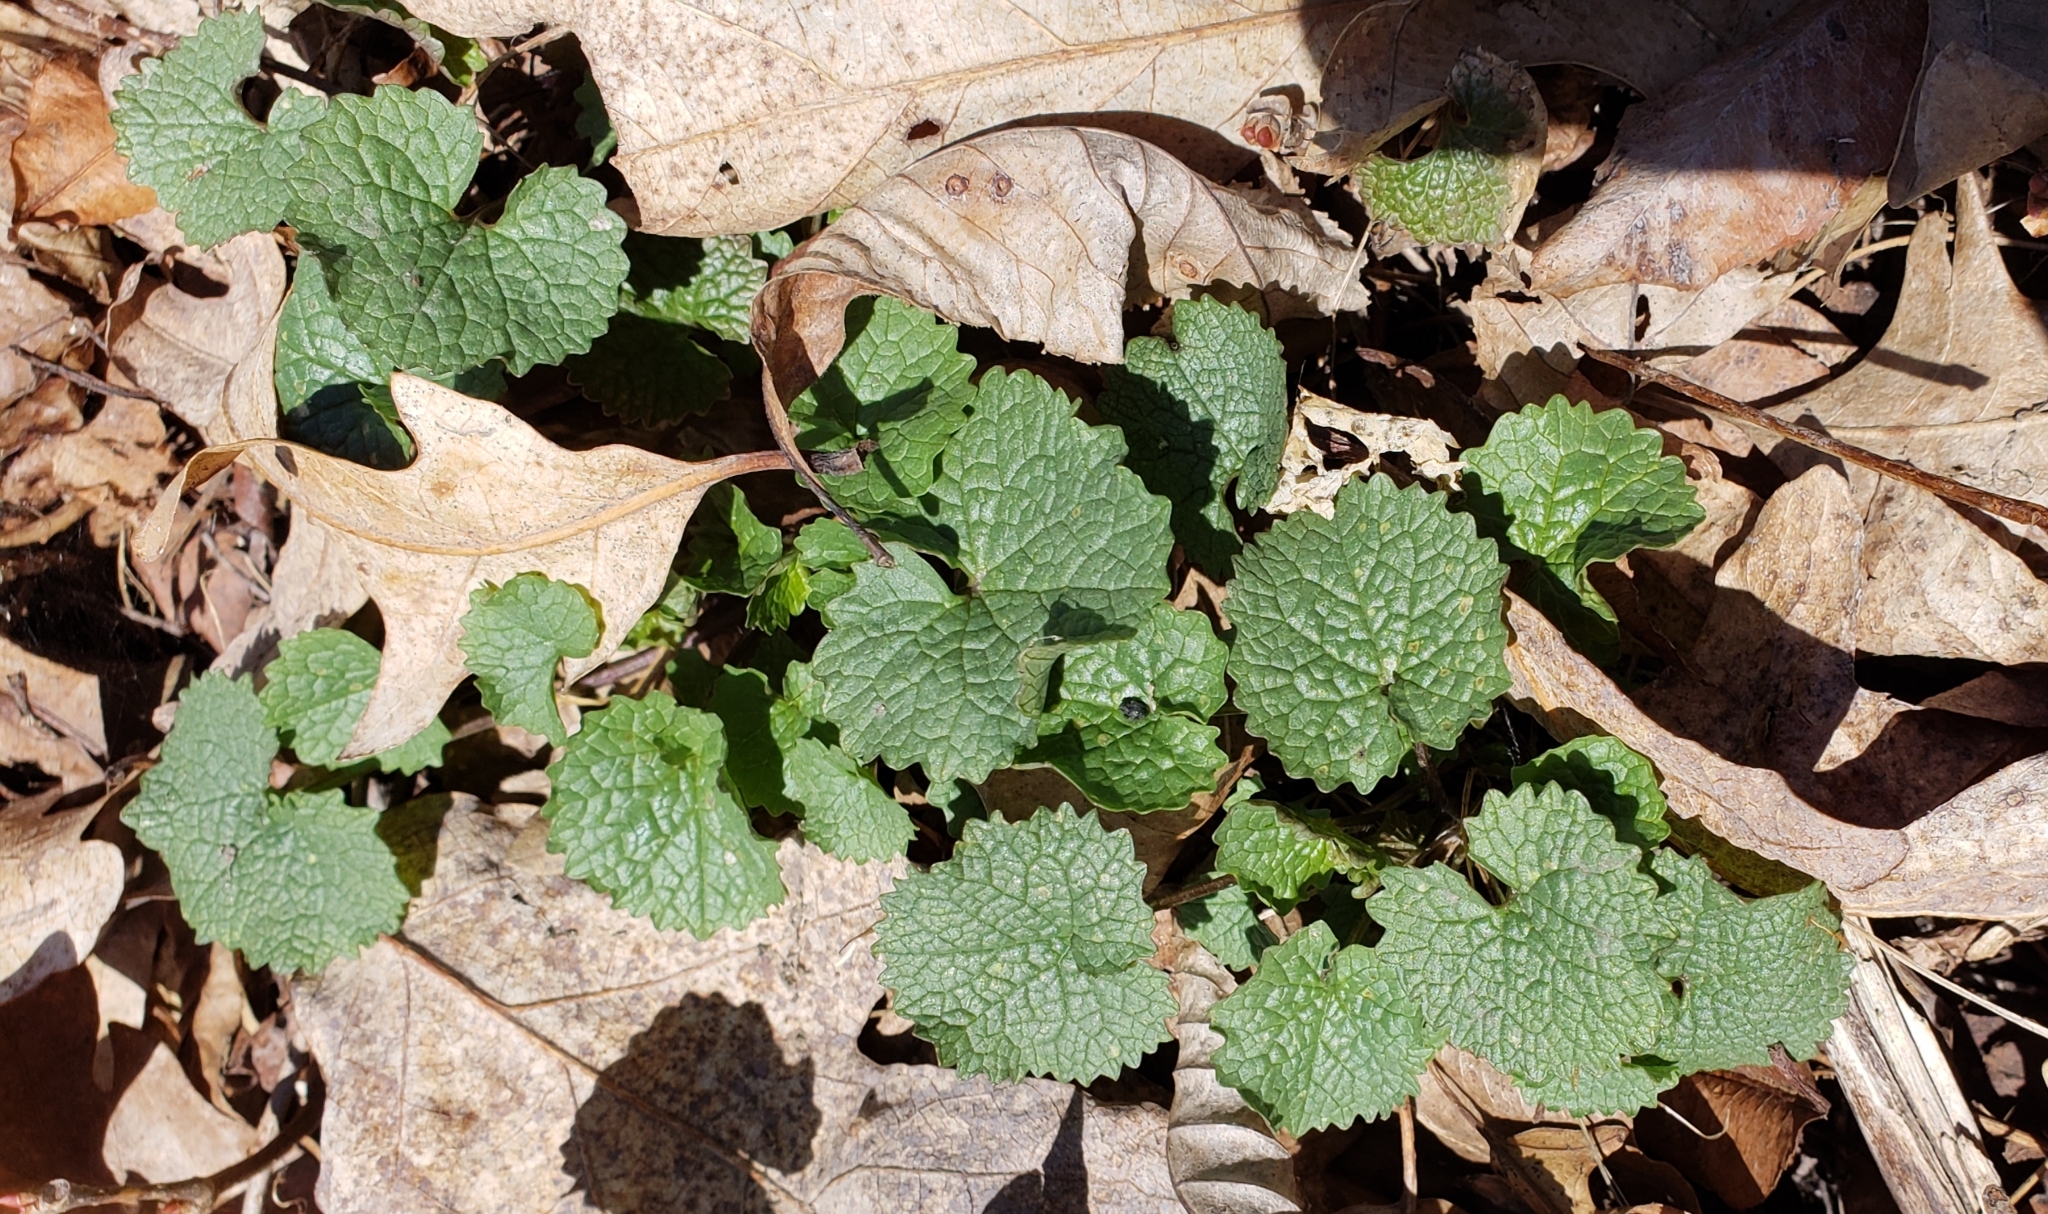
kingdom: Plantae
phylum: Tracheophyta
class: Magnoliopsida
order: Brassicales
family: Brassicaceae
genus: Alliaria
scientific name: Alliaria petiolata
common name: Garlic mustard
